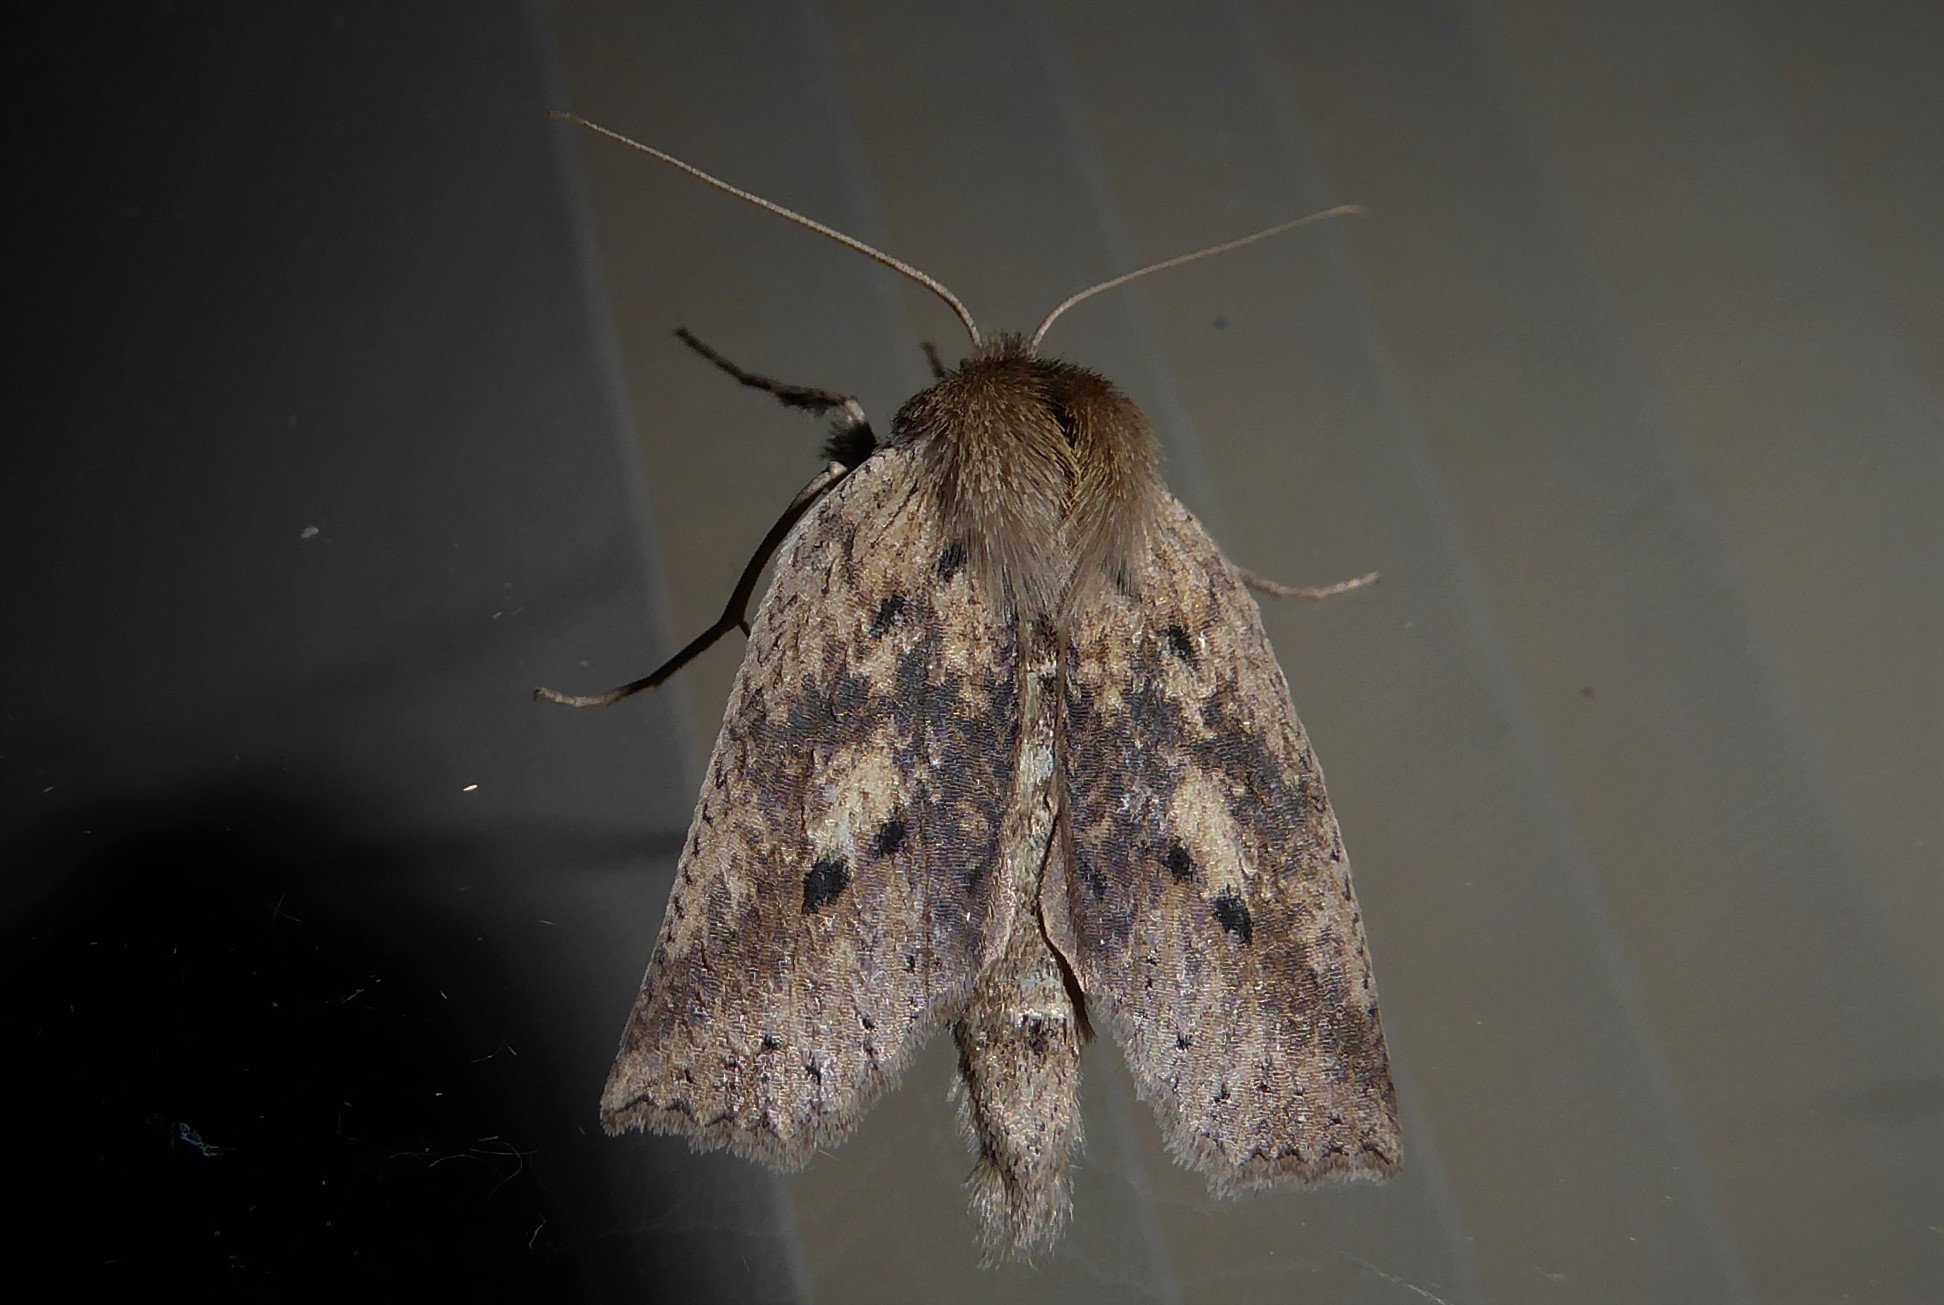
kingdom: Animalia
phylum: Arthropoda
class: Insecta
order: Lepidoptera
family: Geometridae
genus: Declana
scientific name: Declana leptomera
